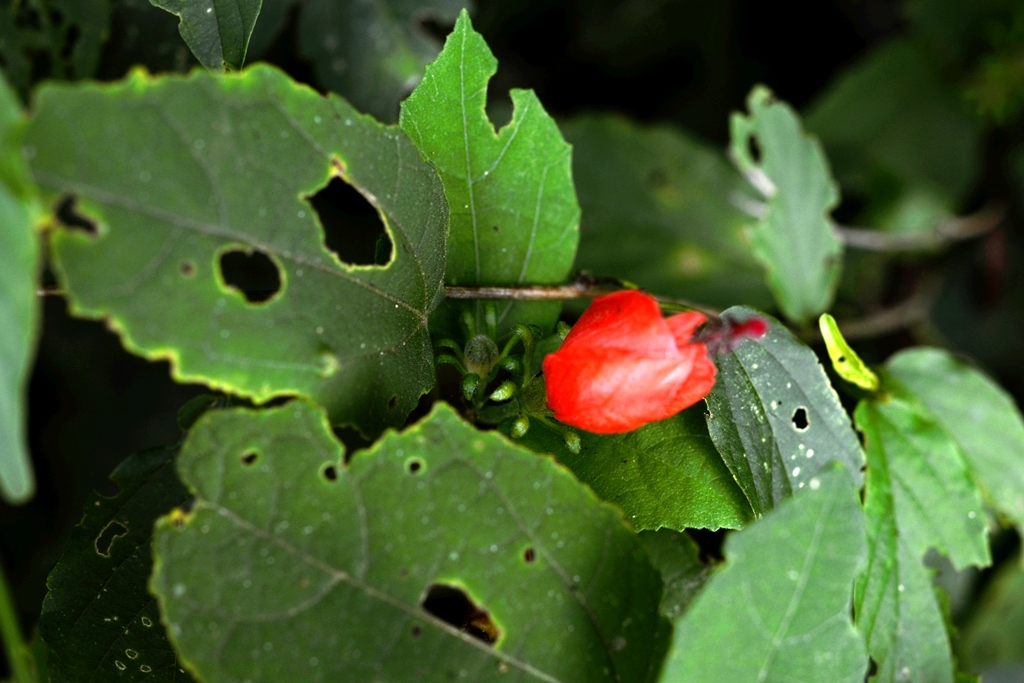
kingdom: Plantae
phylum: Tracheophyta
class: Magnoliopsida
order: Malvales
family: Malvaceae
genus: Malvaviscus
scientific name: Malvaviscus arboreus
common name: Wax mallow
